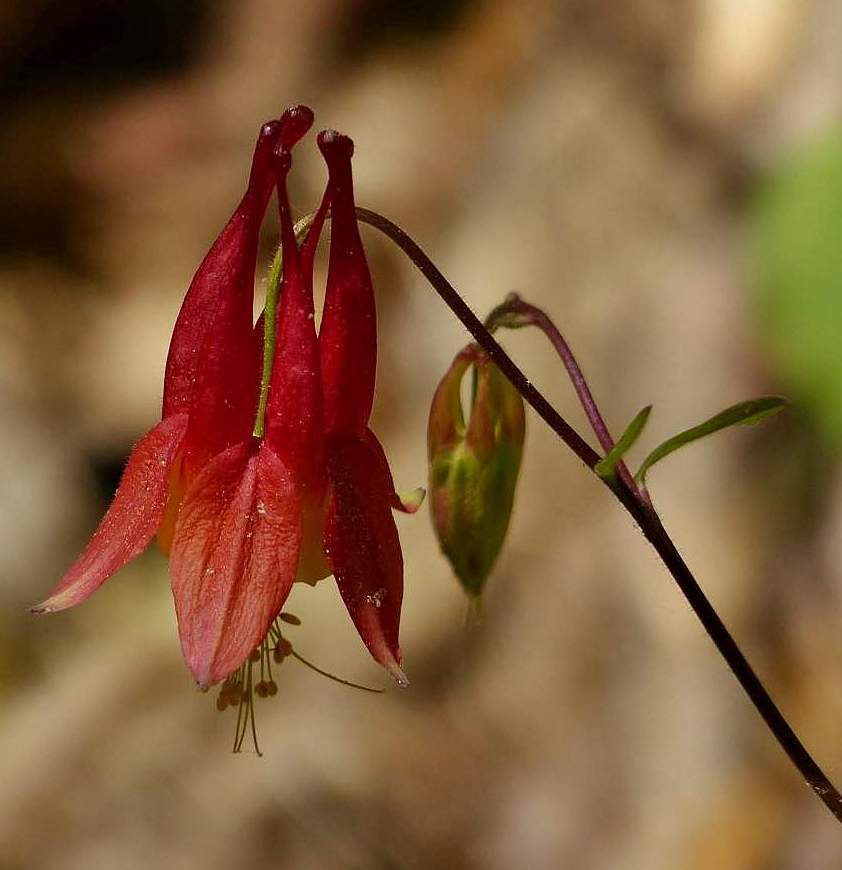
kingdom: Plantae
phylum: Tracheophyta
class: Magnoliopsida
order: Ranunculales
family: Ranunculaceae
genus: Aquilegia
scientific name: Aquilegia canadensis
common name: American columbine
